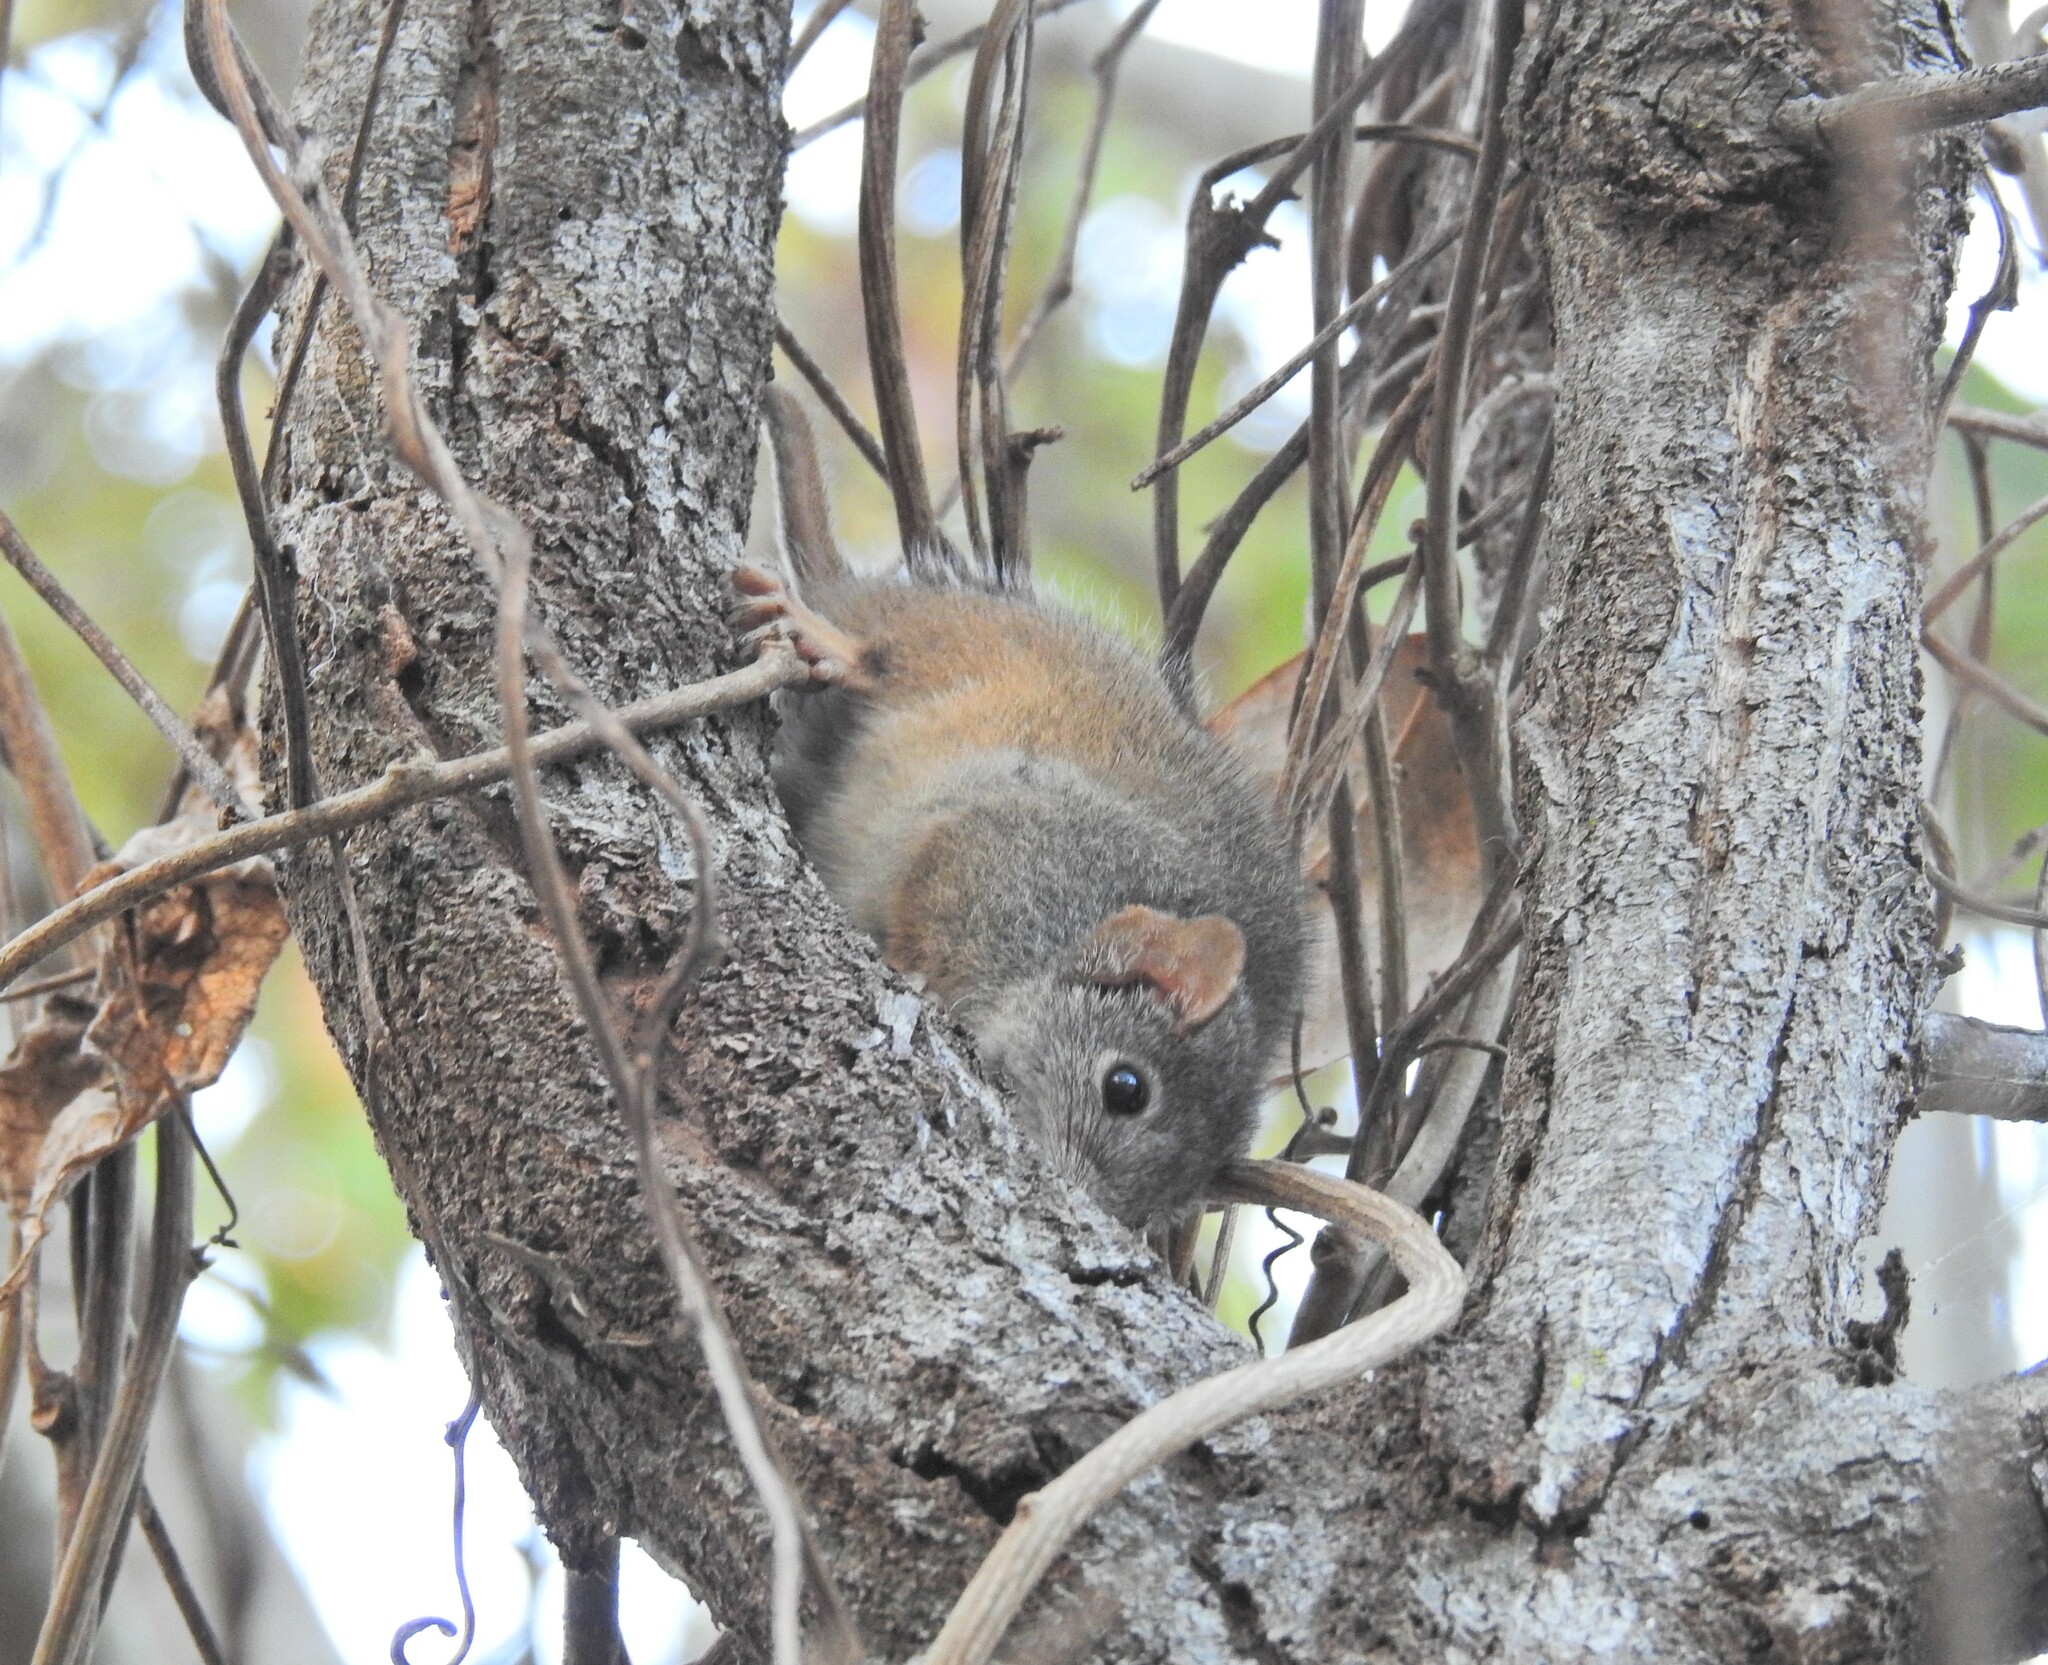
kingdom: Animalia
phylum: Chordata
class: Mammalia
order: Dasyuromorphia
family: Dasyuridae
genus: Antechinus
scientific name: Antechinus flavipes
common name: Yellow-footed antechinus
